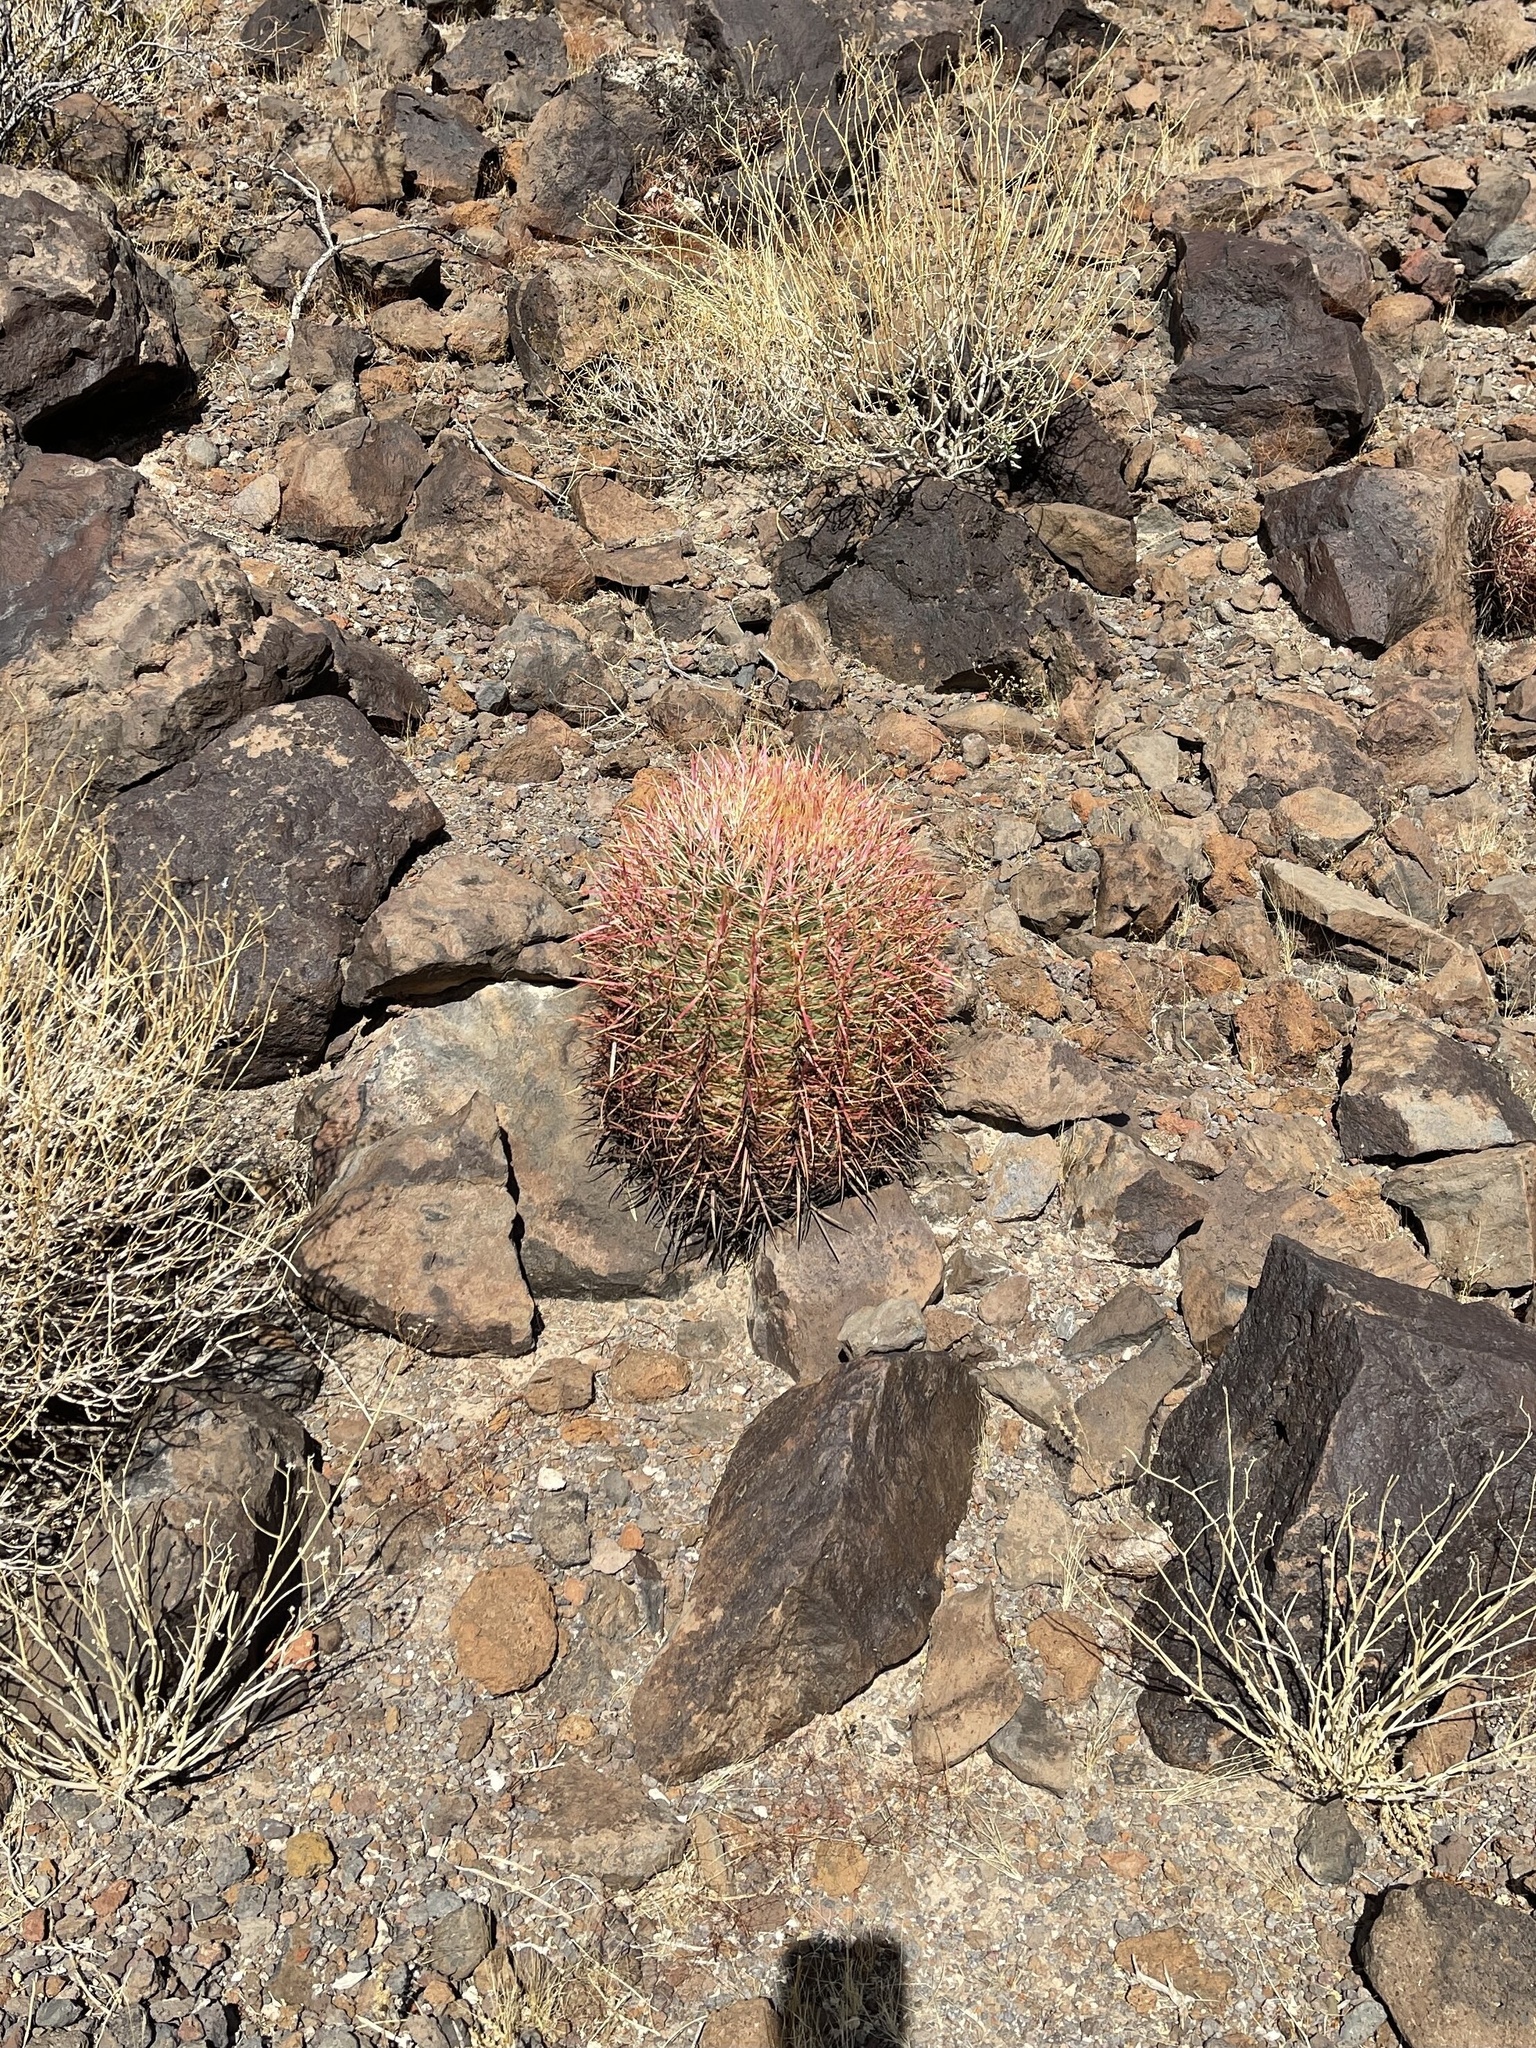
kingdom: Plantae
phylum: Tracheophyta
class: Magnoliopsida
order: Caryophyllales
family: Cactaceae
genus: Ferocactus
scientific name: Ferocactus cylindraceus
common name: California barrel cactus
